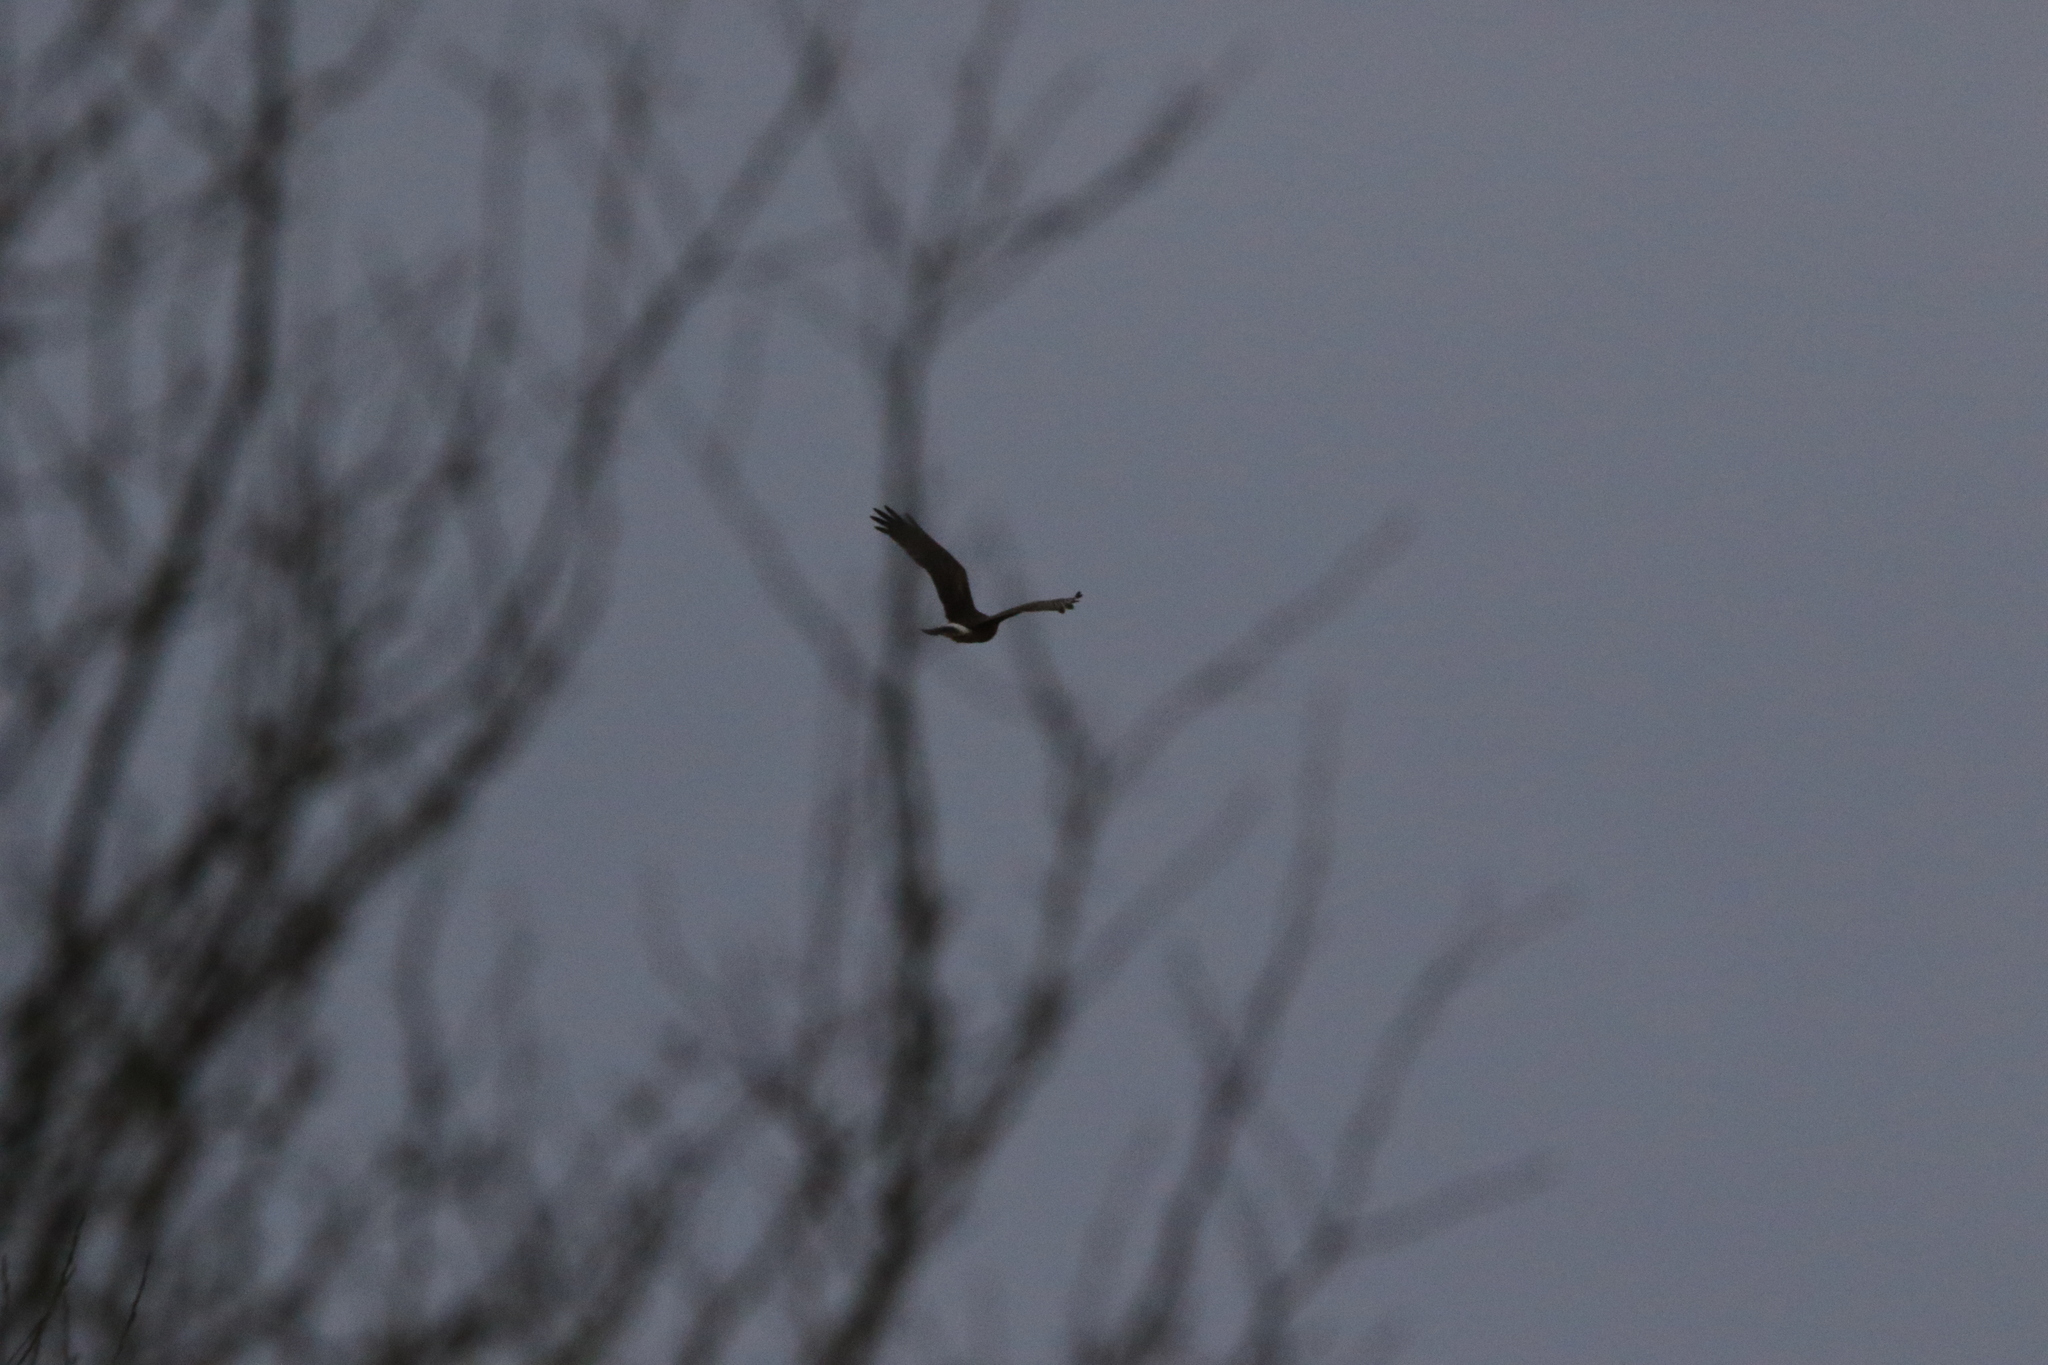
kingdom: Animalia
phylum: Chordata
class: Aves
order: Accipitriformes
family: Accipitridae
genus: Circus
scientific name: Circus cyaneus
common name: Hen harrier
